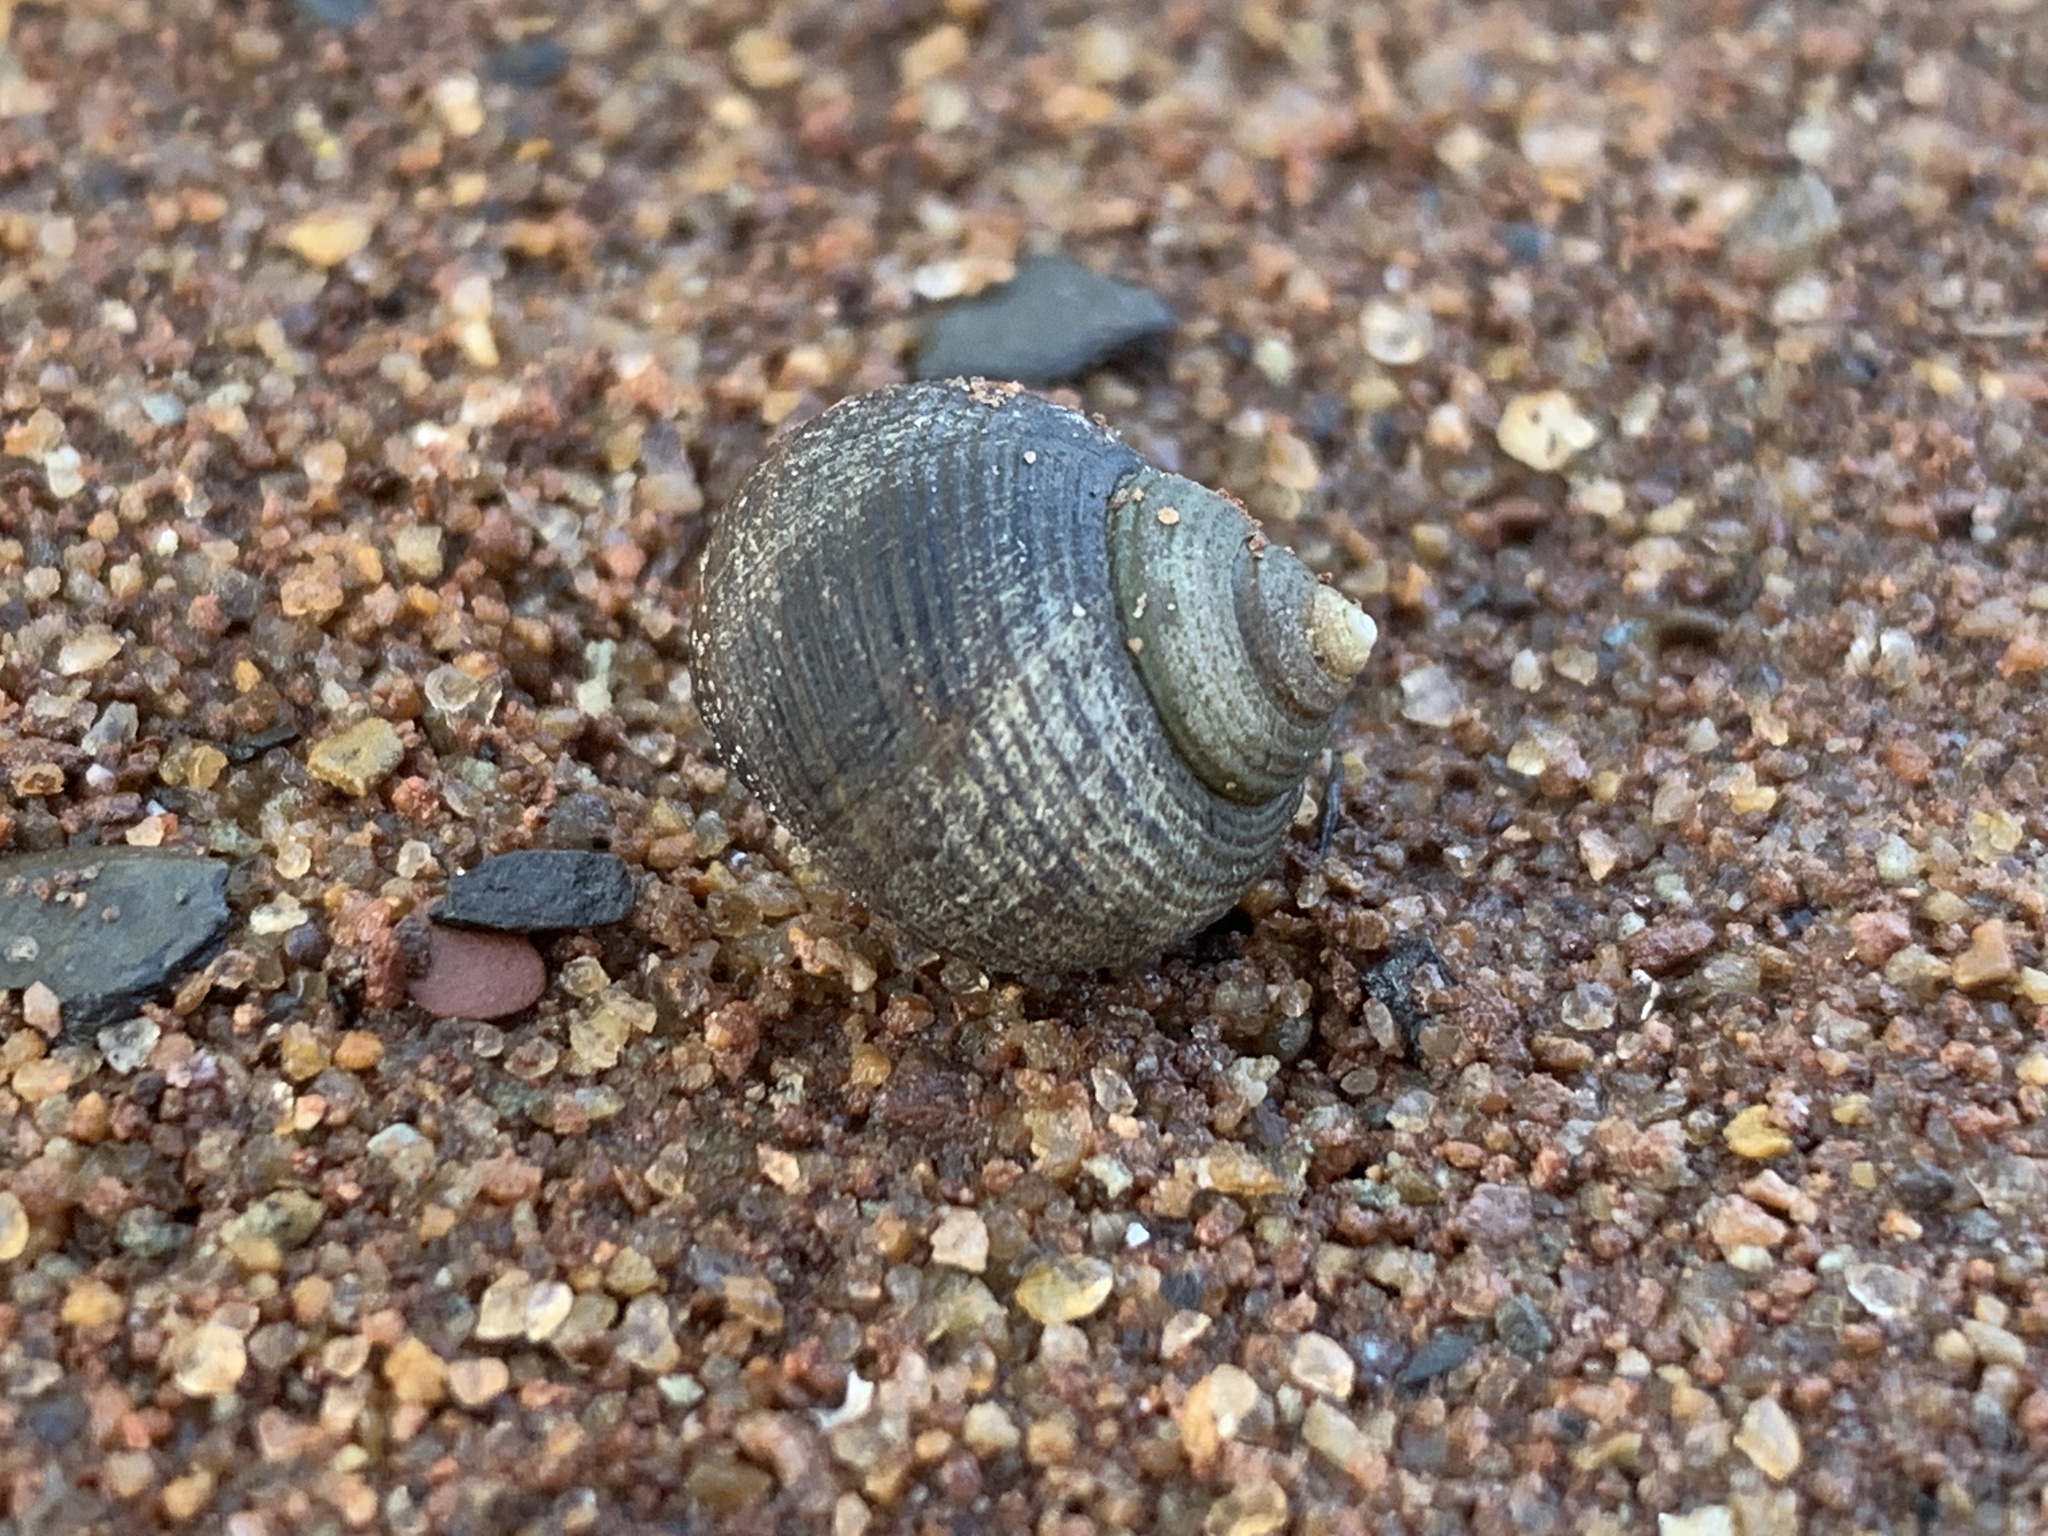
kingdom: Animalia
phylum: Mollusca
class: Gastropoda
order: Littorinimorpha
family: Littorinidae
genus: Littorina
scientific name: Littorina littorea
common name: Common periwinkle
